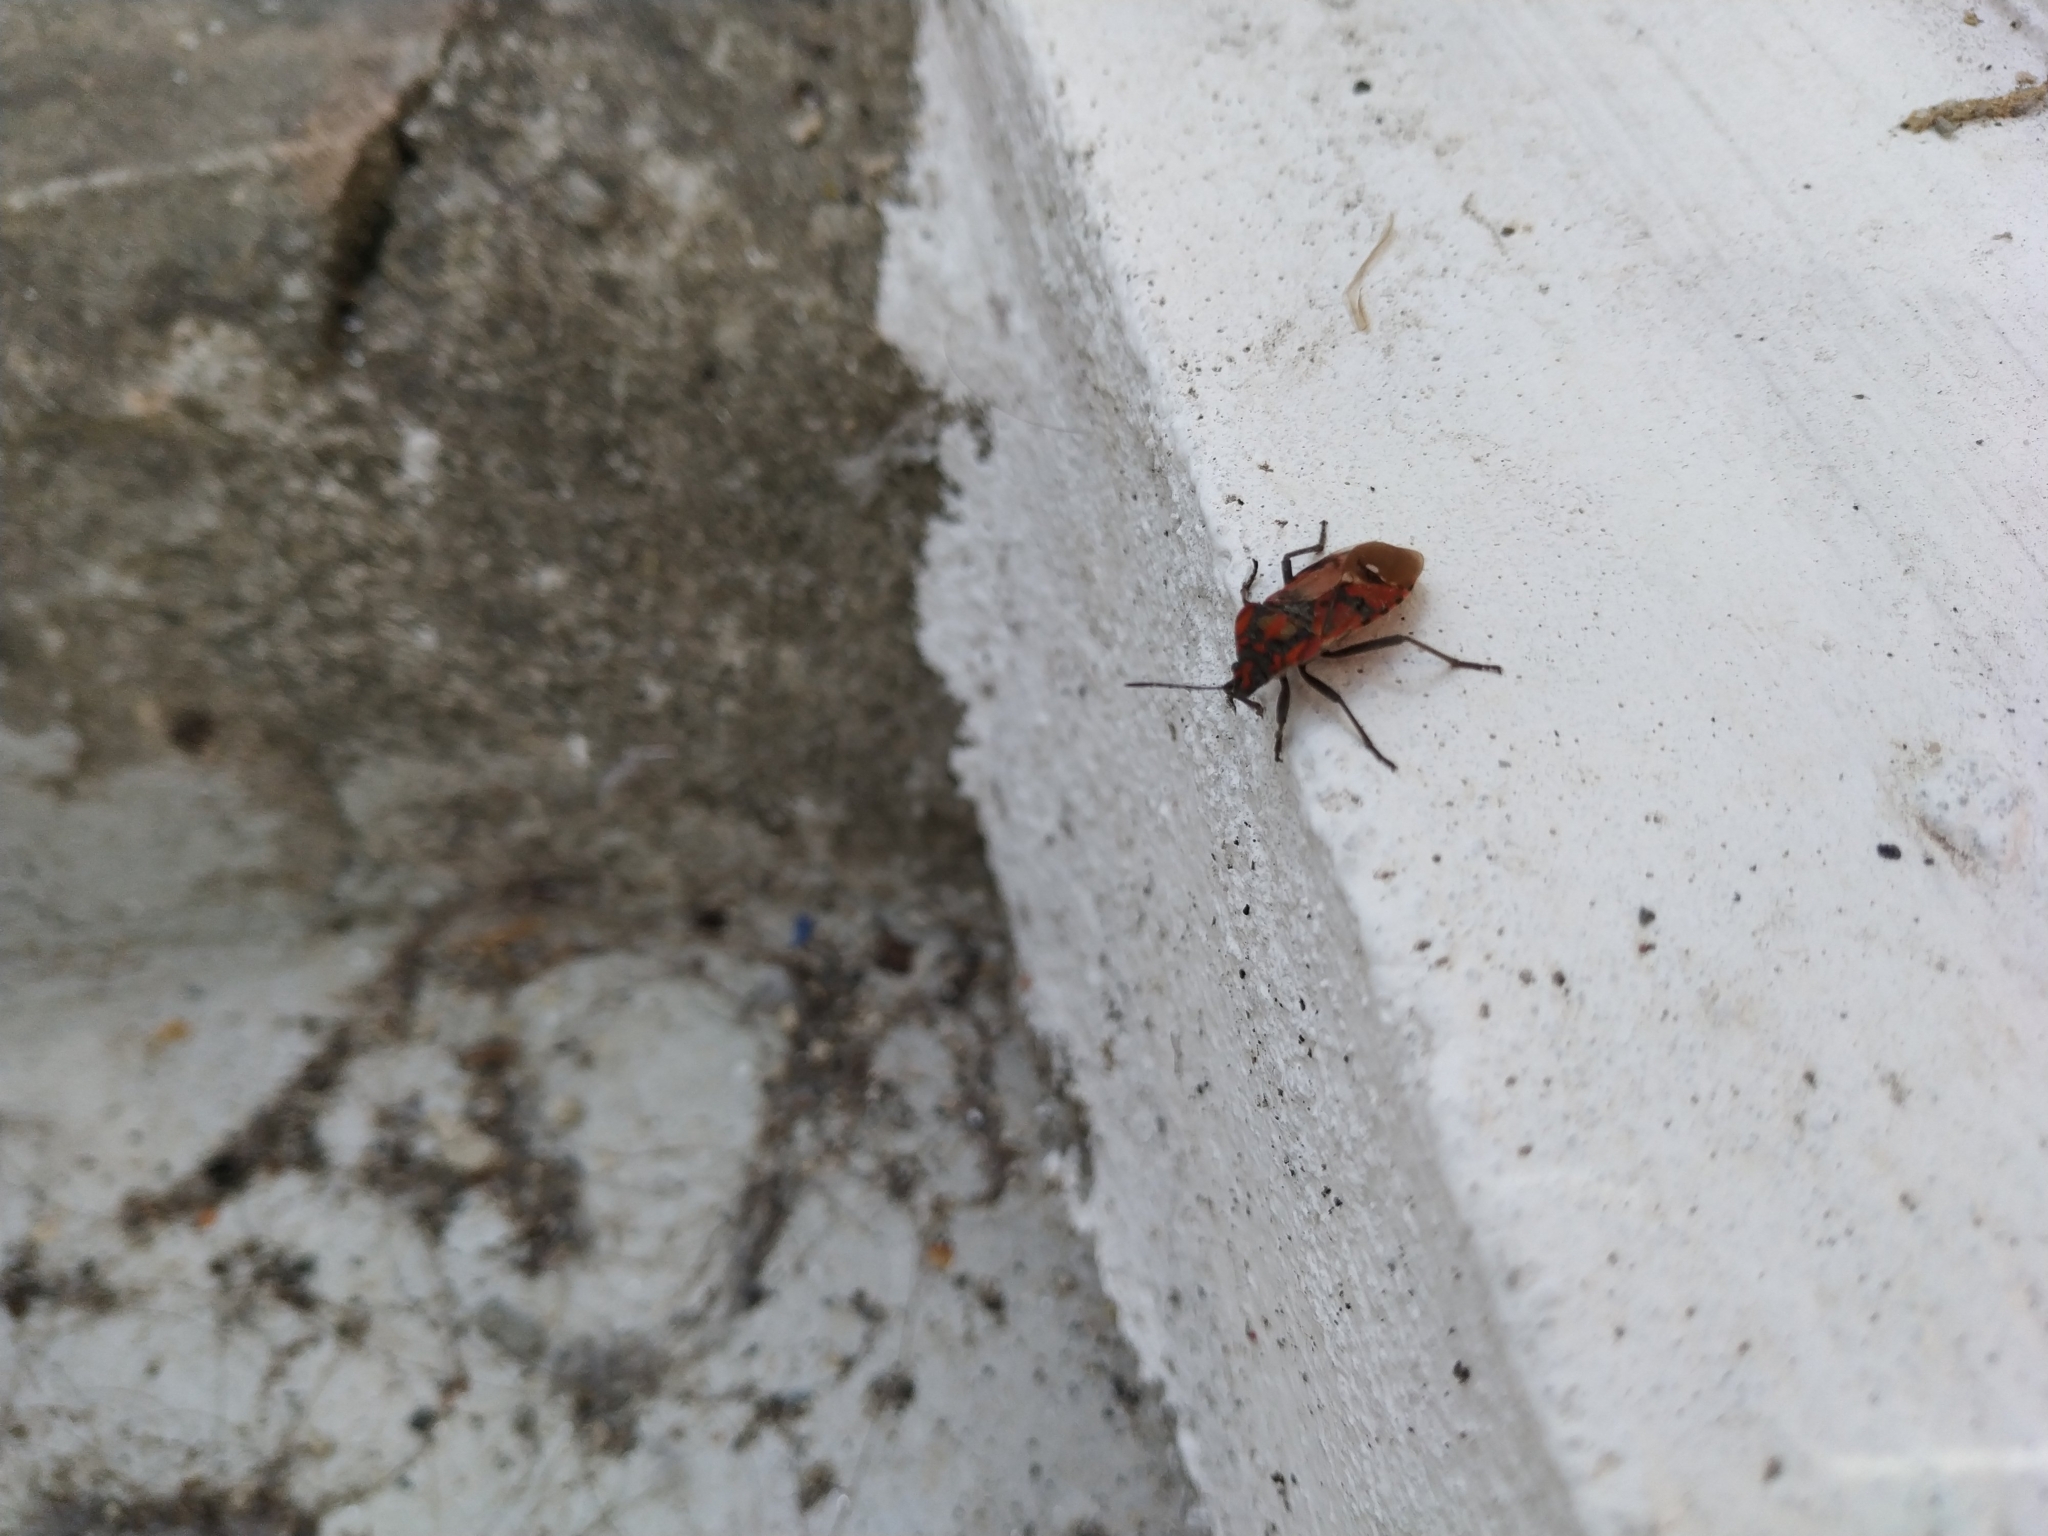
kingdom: Animalia
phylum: Arthropoda
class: Insecta
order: Hemiptera
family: Lygaeidae
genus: Spilostethus
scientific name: Spilostethus pandurus
